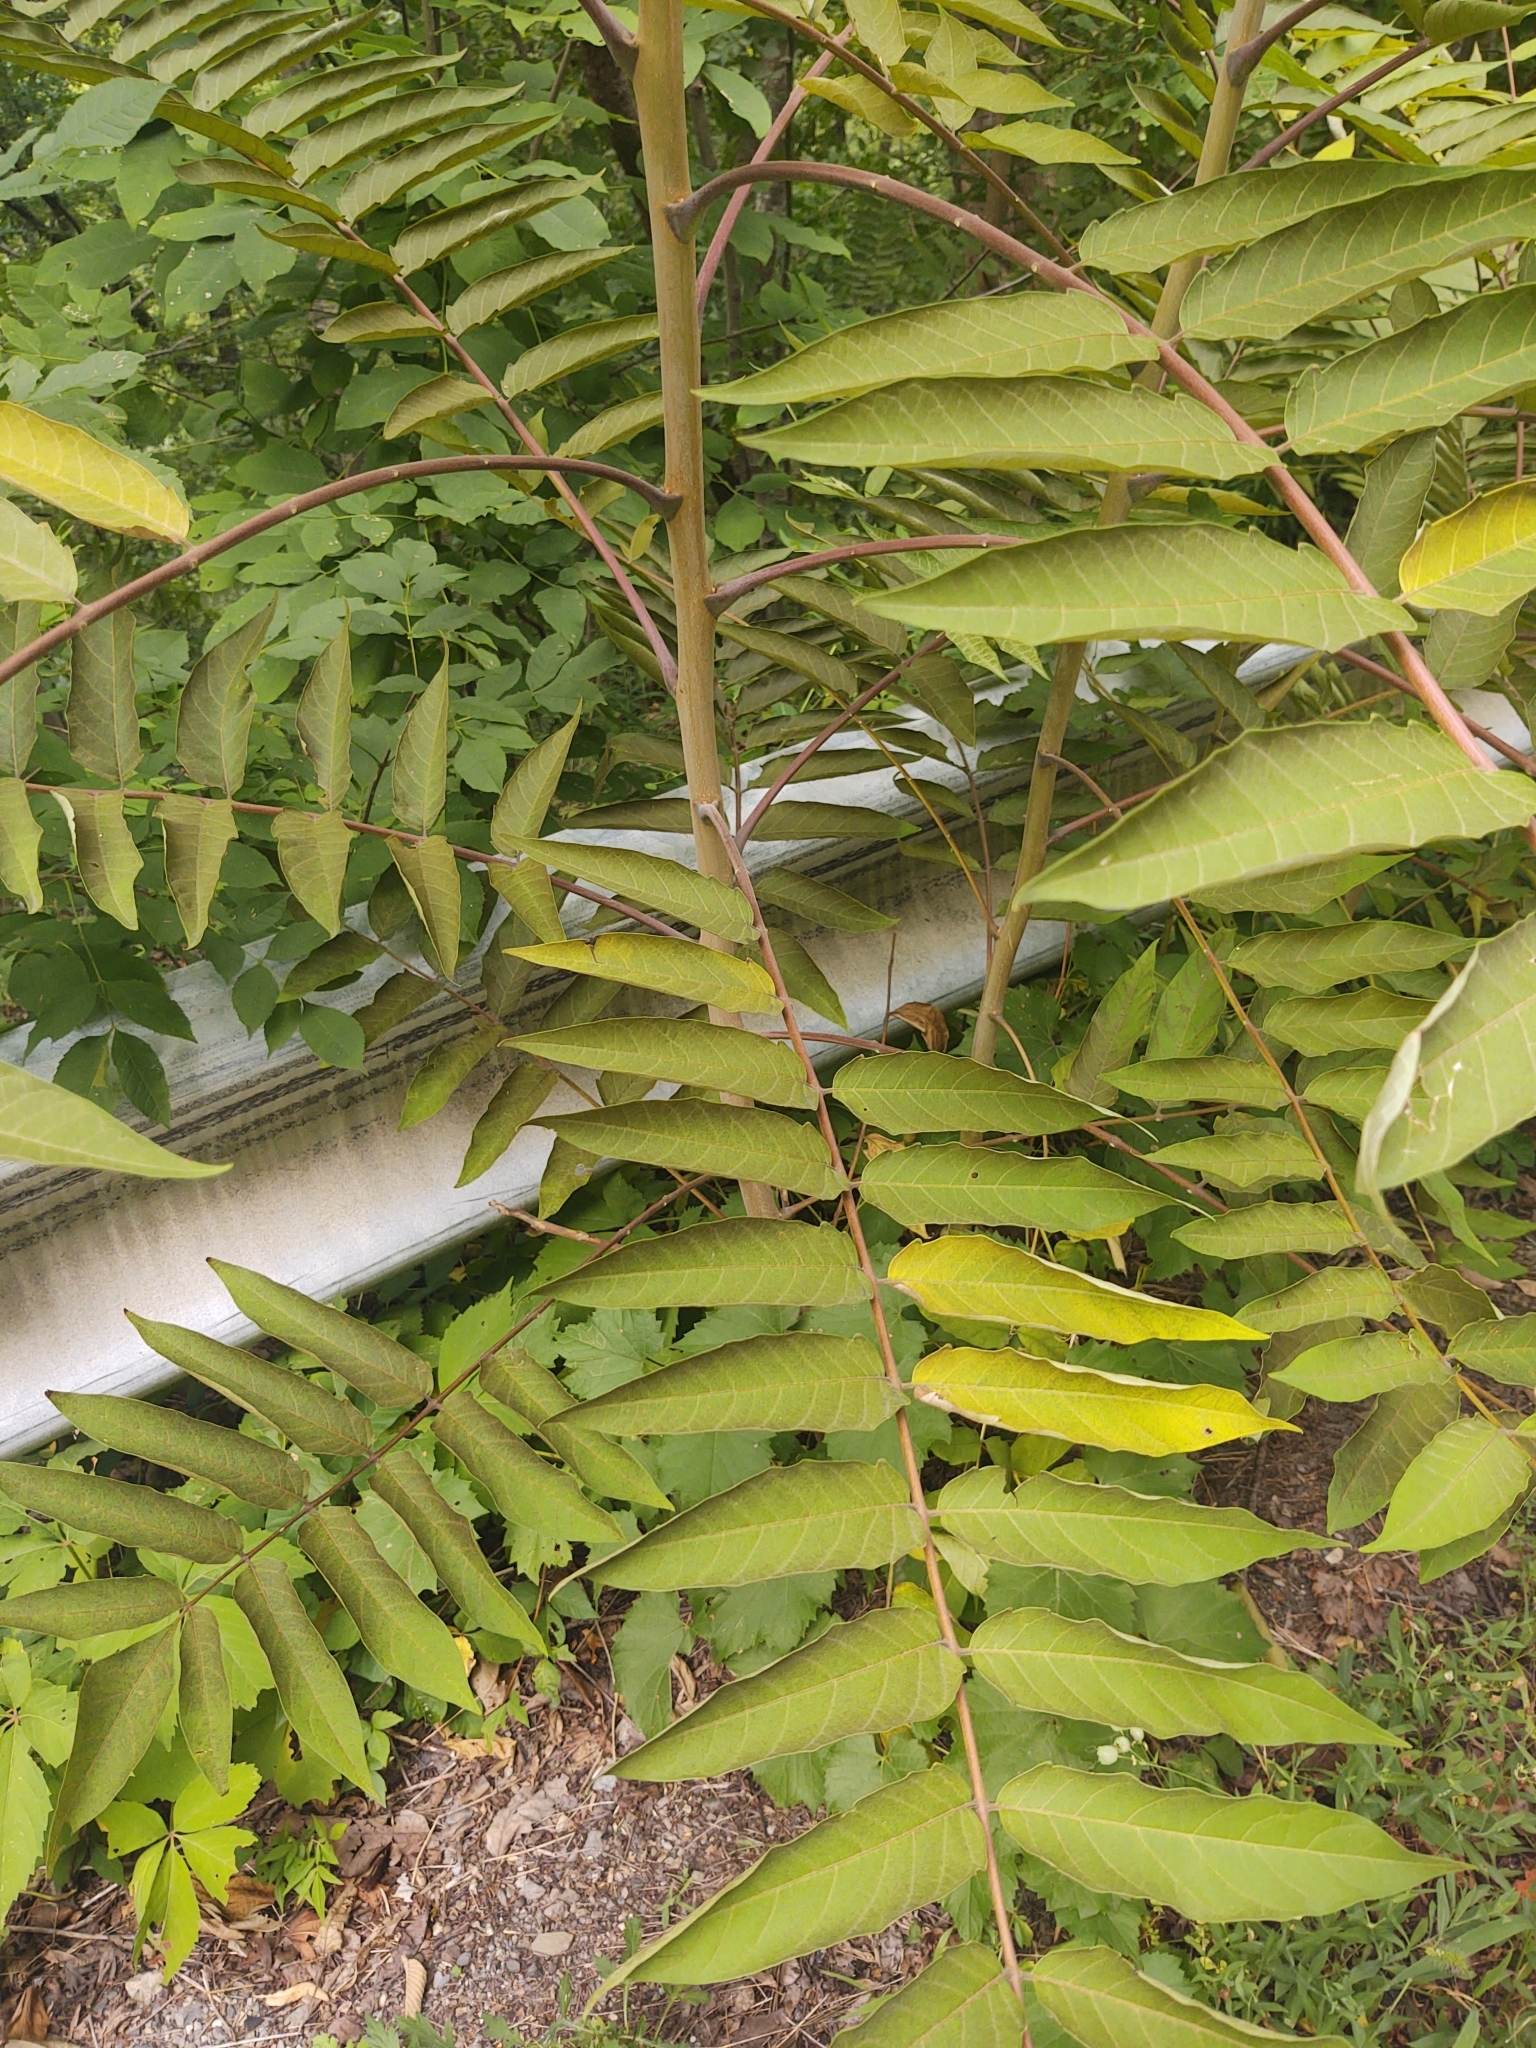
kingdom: Plantae
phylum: Tracheophyta
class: Magnoliopsida
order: Sapindales
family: Simaroubaceae
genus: Ailanthus
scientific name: Ailanthus altissima
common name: Tree-of-heaven
